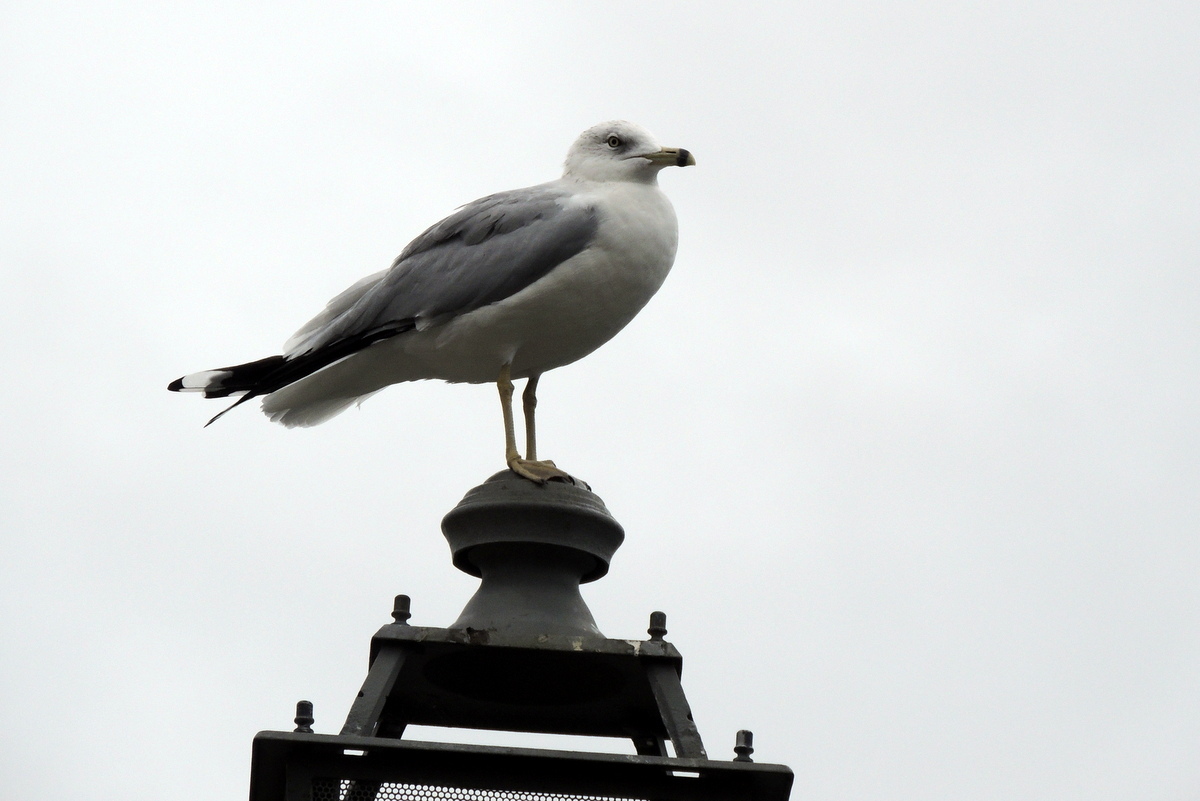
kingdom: Animalia
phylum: Chordata
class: Aves
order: Charadriiformes
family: Laridae
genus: Larus
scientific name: Larus delawarensis
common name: Ring-billed gull
